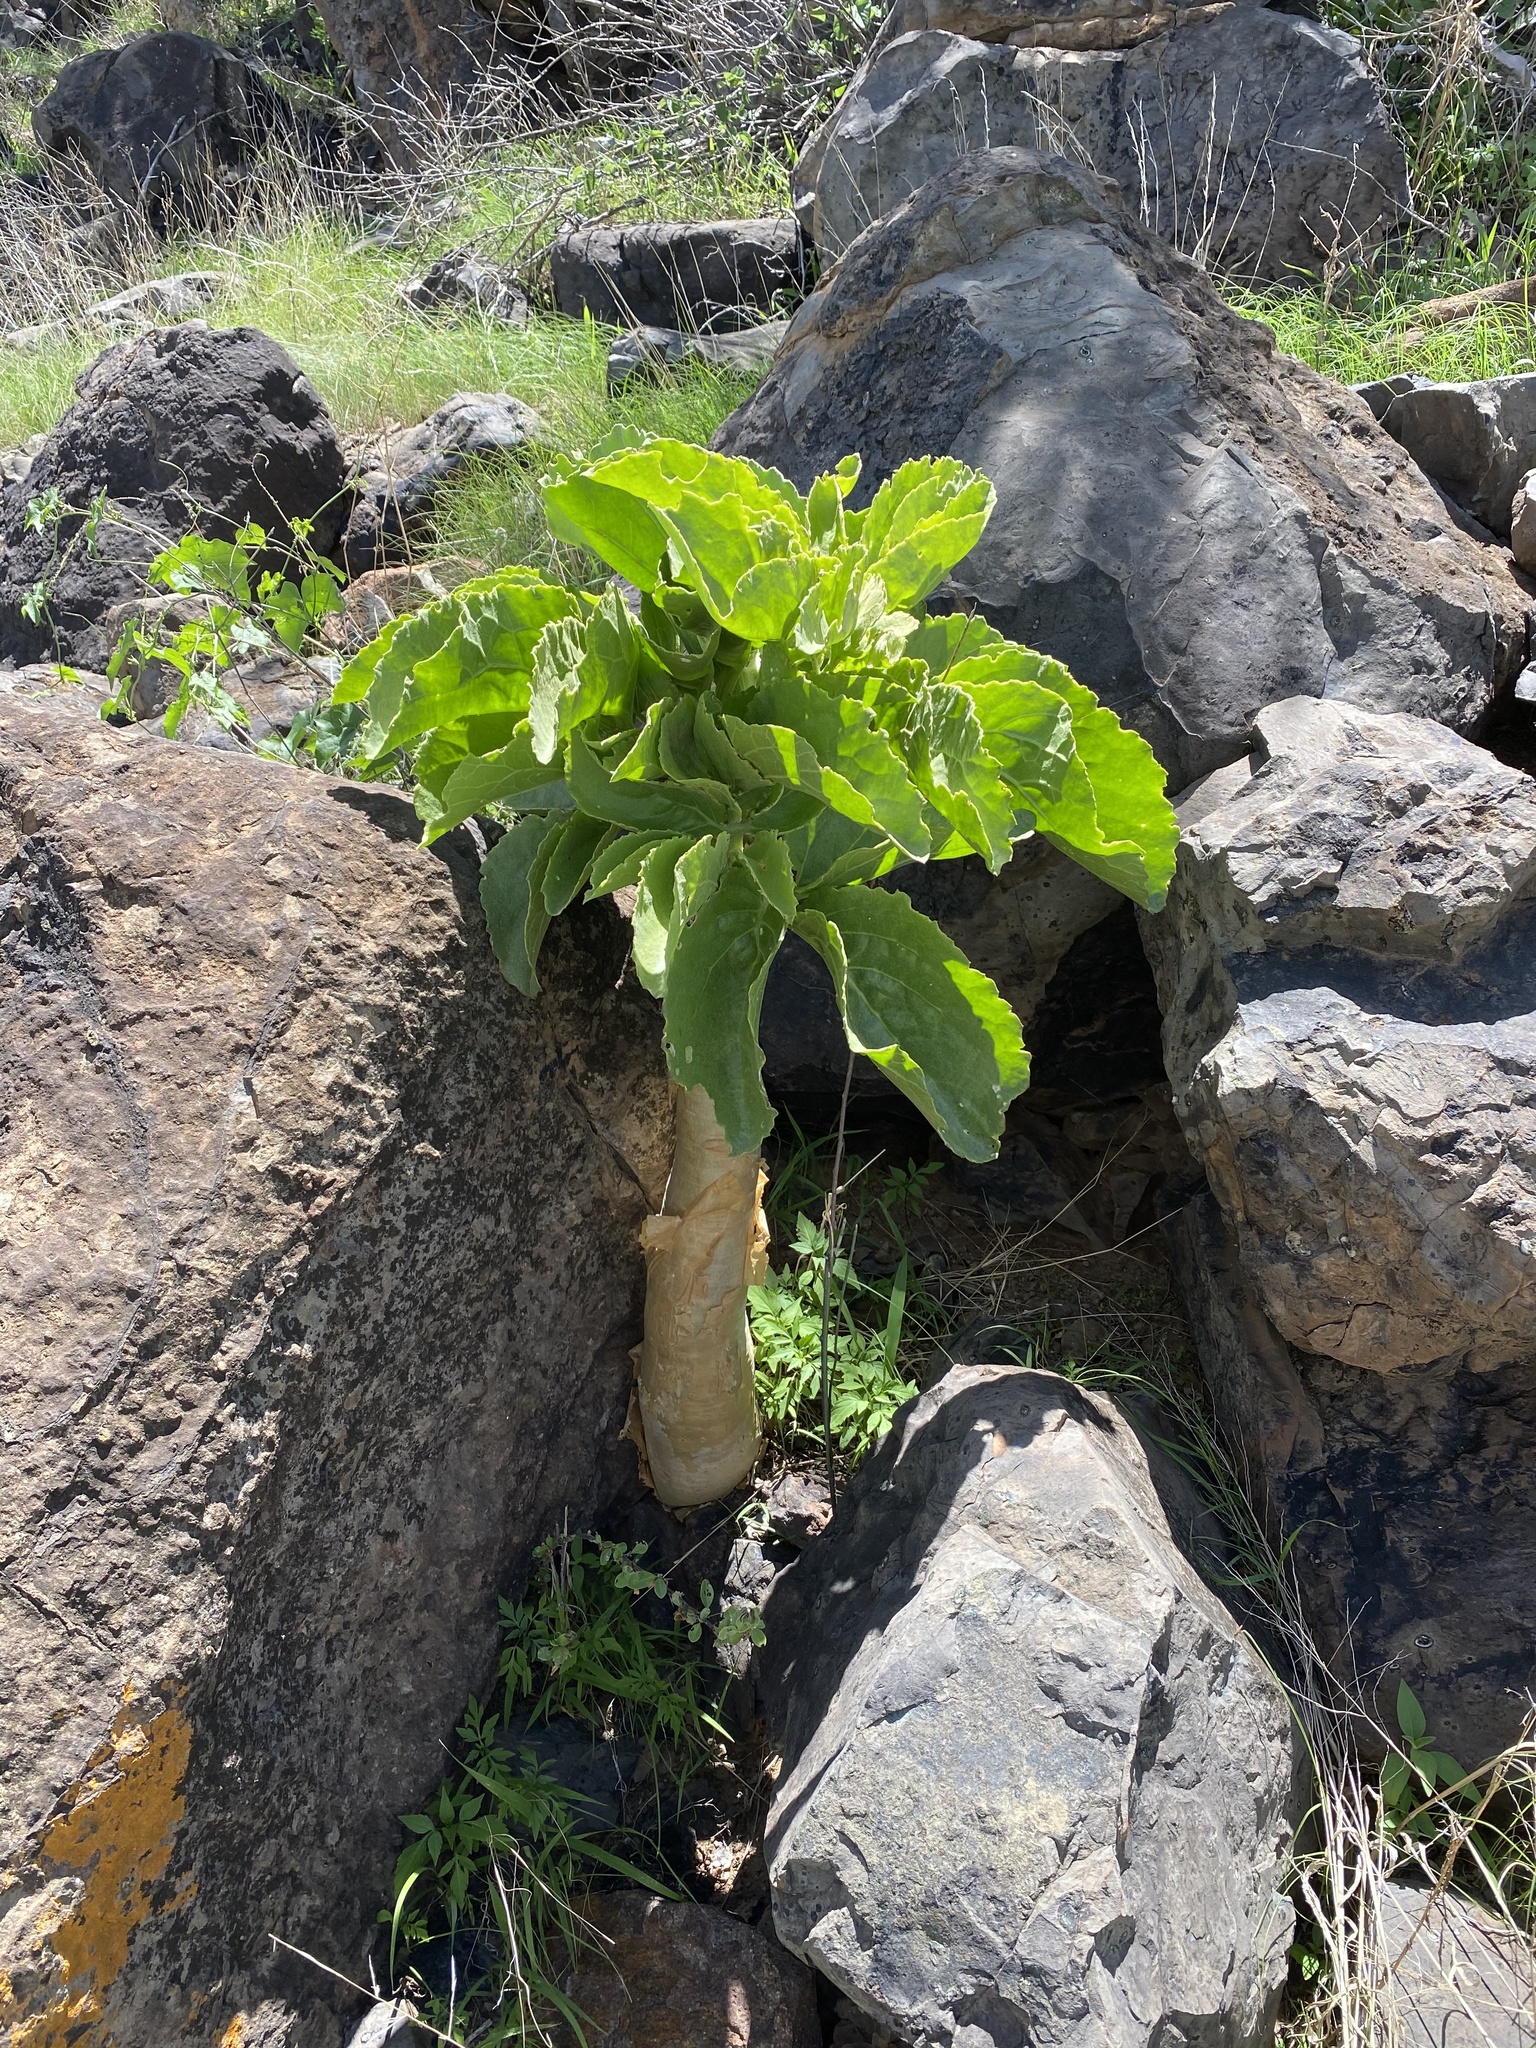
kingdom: Plantae
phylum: Tracheophyta
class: Magnoliopsida
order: Vitales
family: Vitaceae
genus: Cyphostemma
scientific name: Cyphostemma currorii
